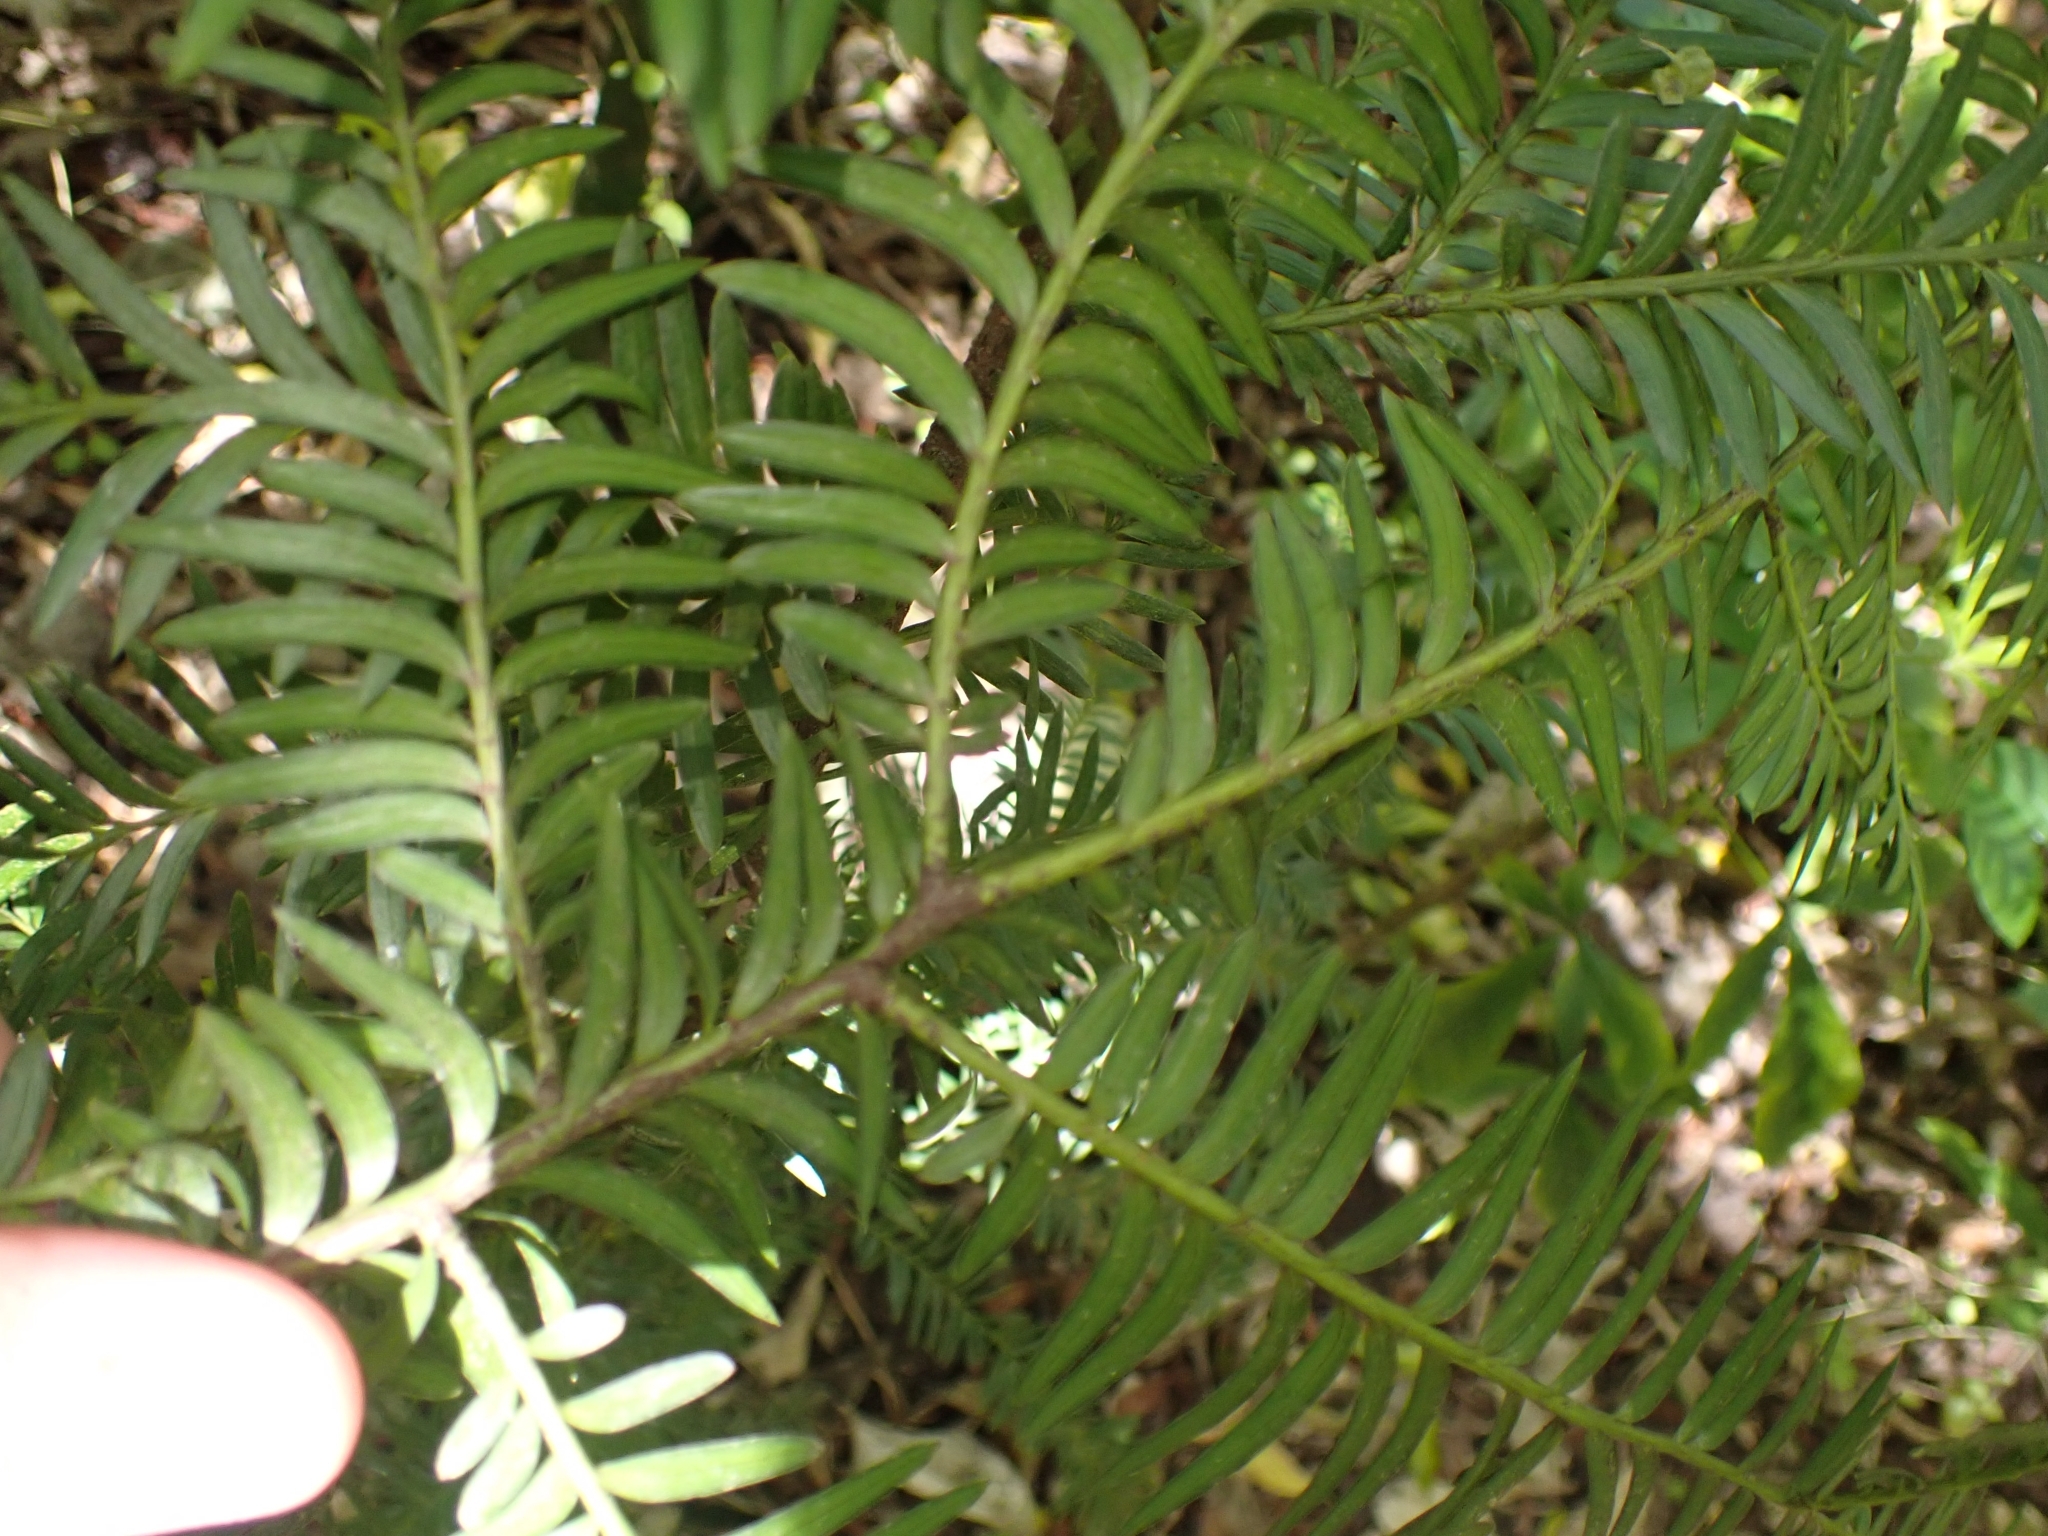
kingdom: Plantae
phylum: Tracheophyta
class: Pinopsida
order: Pinales
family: Podocarpaceae
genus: Prumnopitys
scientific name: Prumnopitys ferruginea
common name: Brown pine
